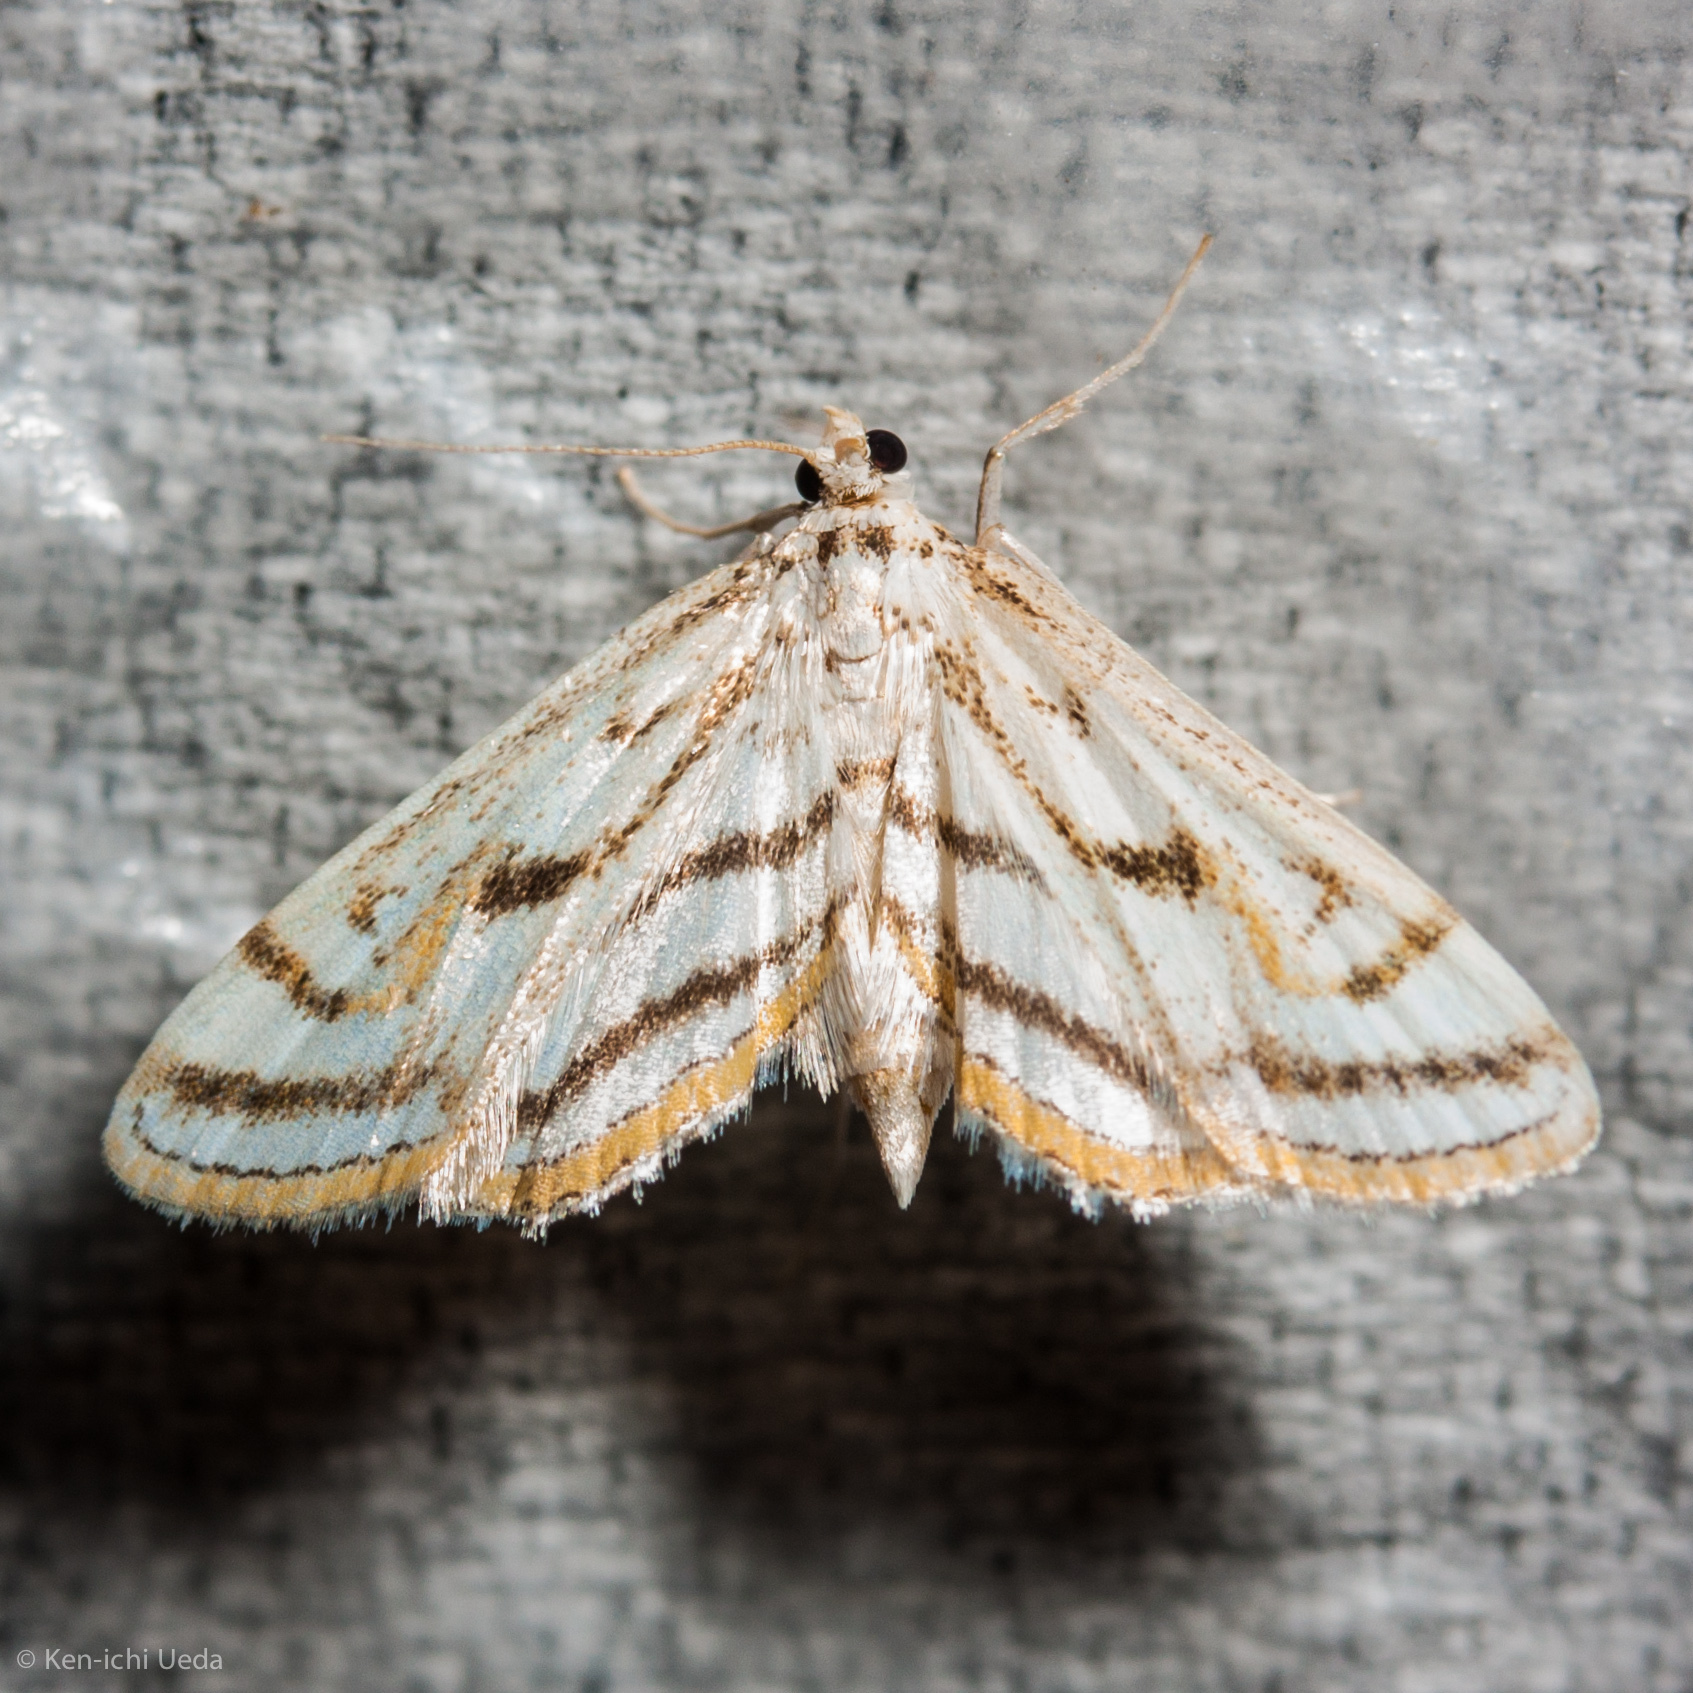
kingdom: Animalia
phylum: Arthropoda
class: Insecta
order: Lepidoptera
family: Crambidae
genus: Parapoynx
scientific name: Parapoynx badiusalis
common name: Chestnut-marked pondweed moth
